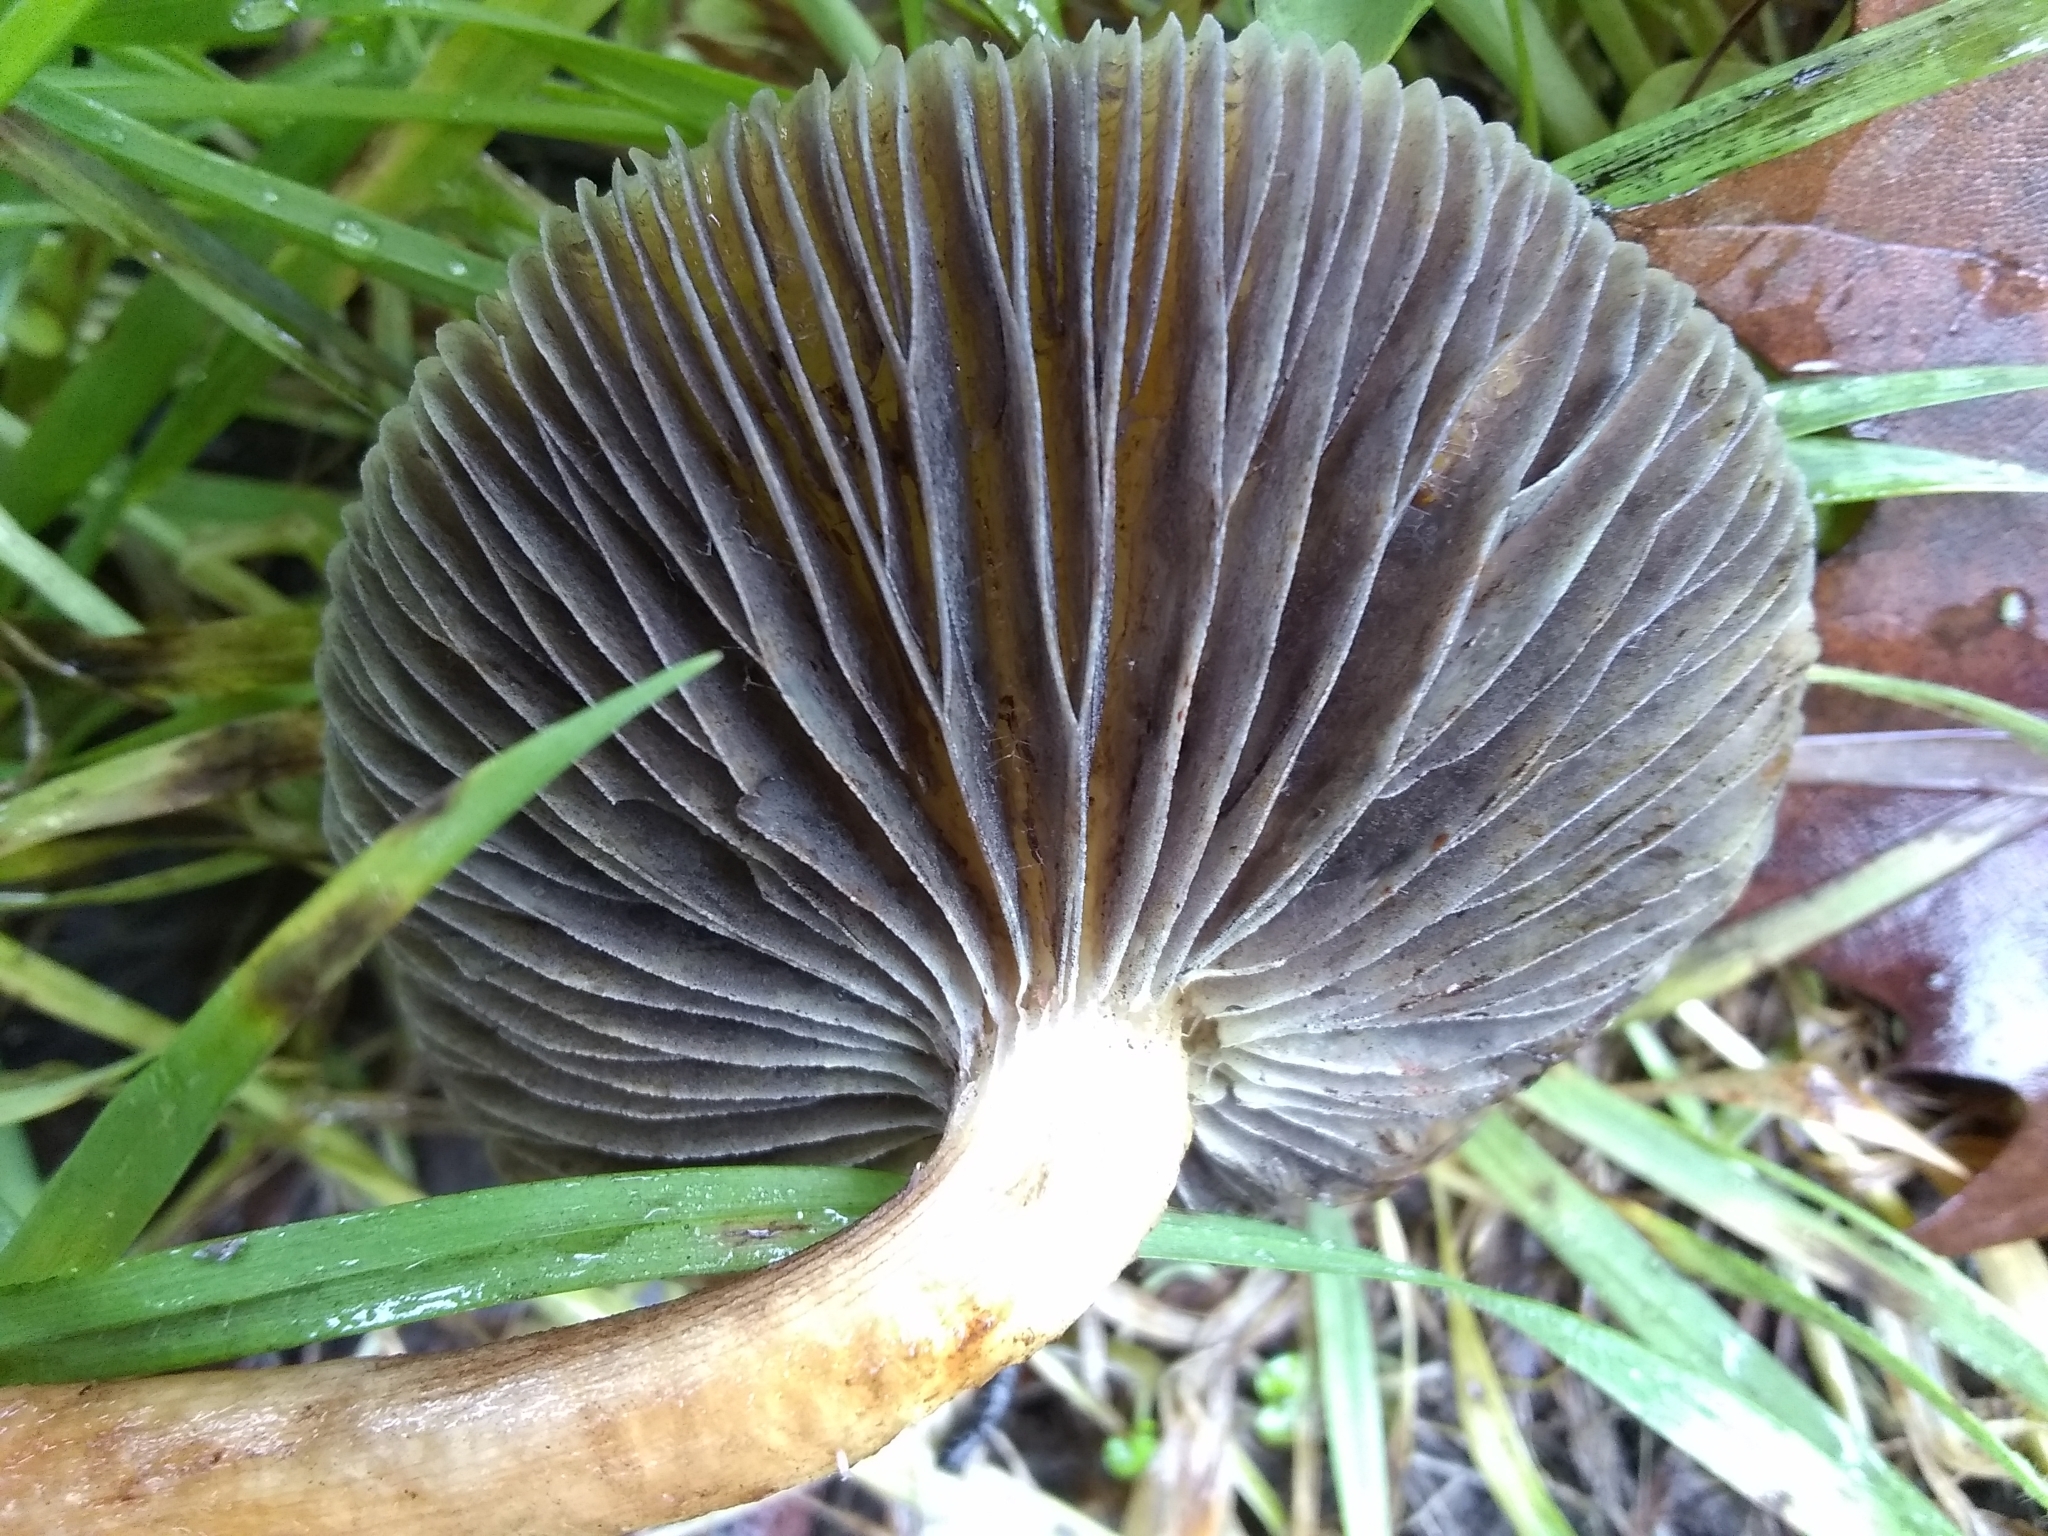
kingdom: Fungi
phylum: Basidiomycota
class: Agaricomycetes
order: Agaricales
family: Strophariaceae
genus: Leratiomyces
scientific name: Leratiomyces percevalii
